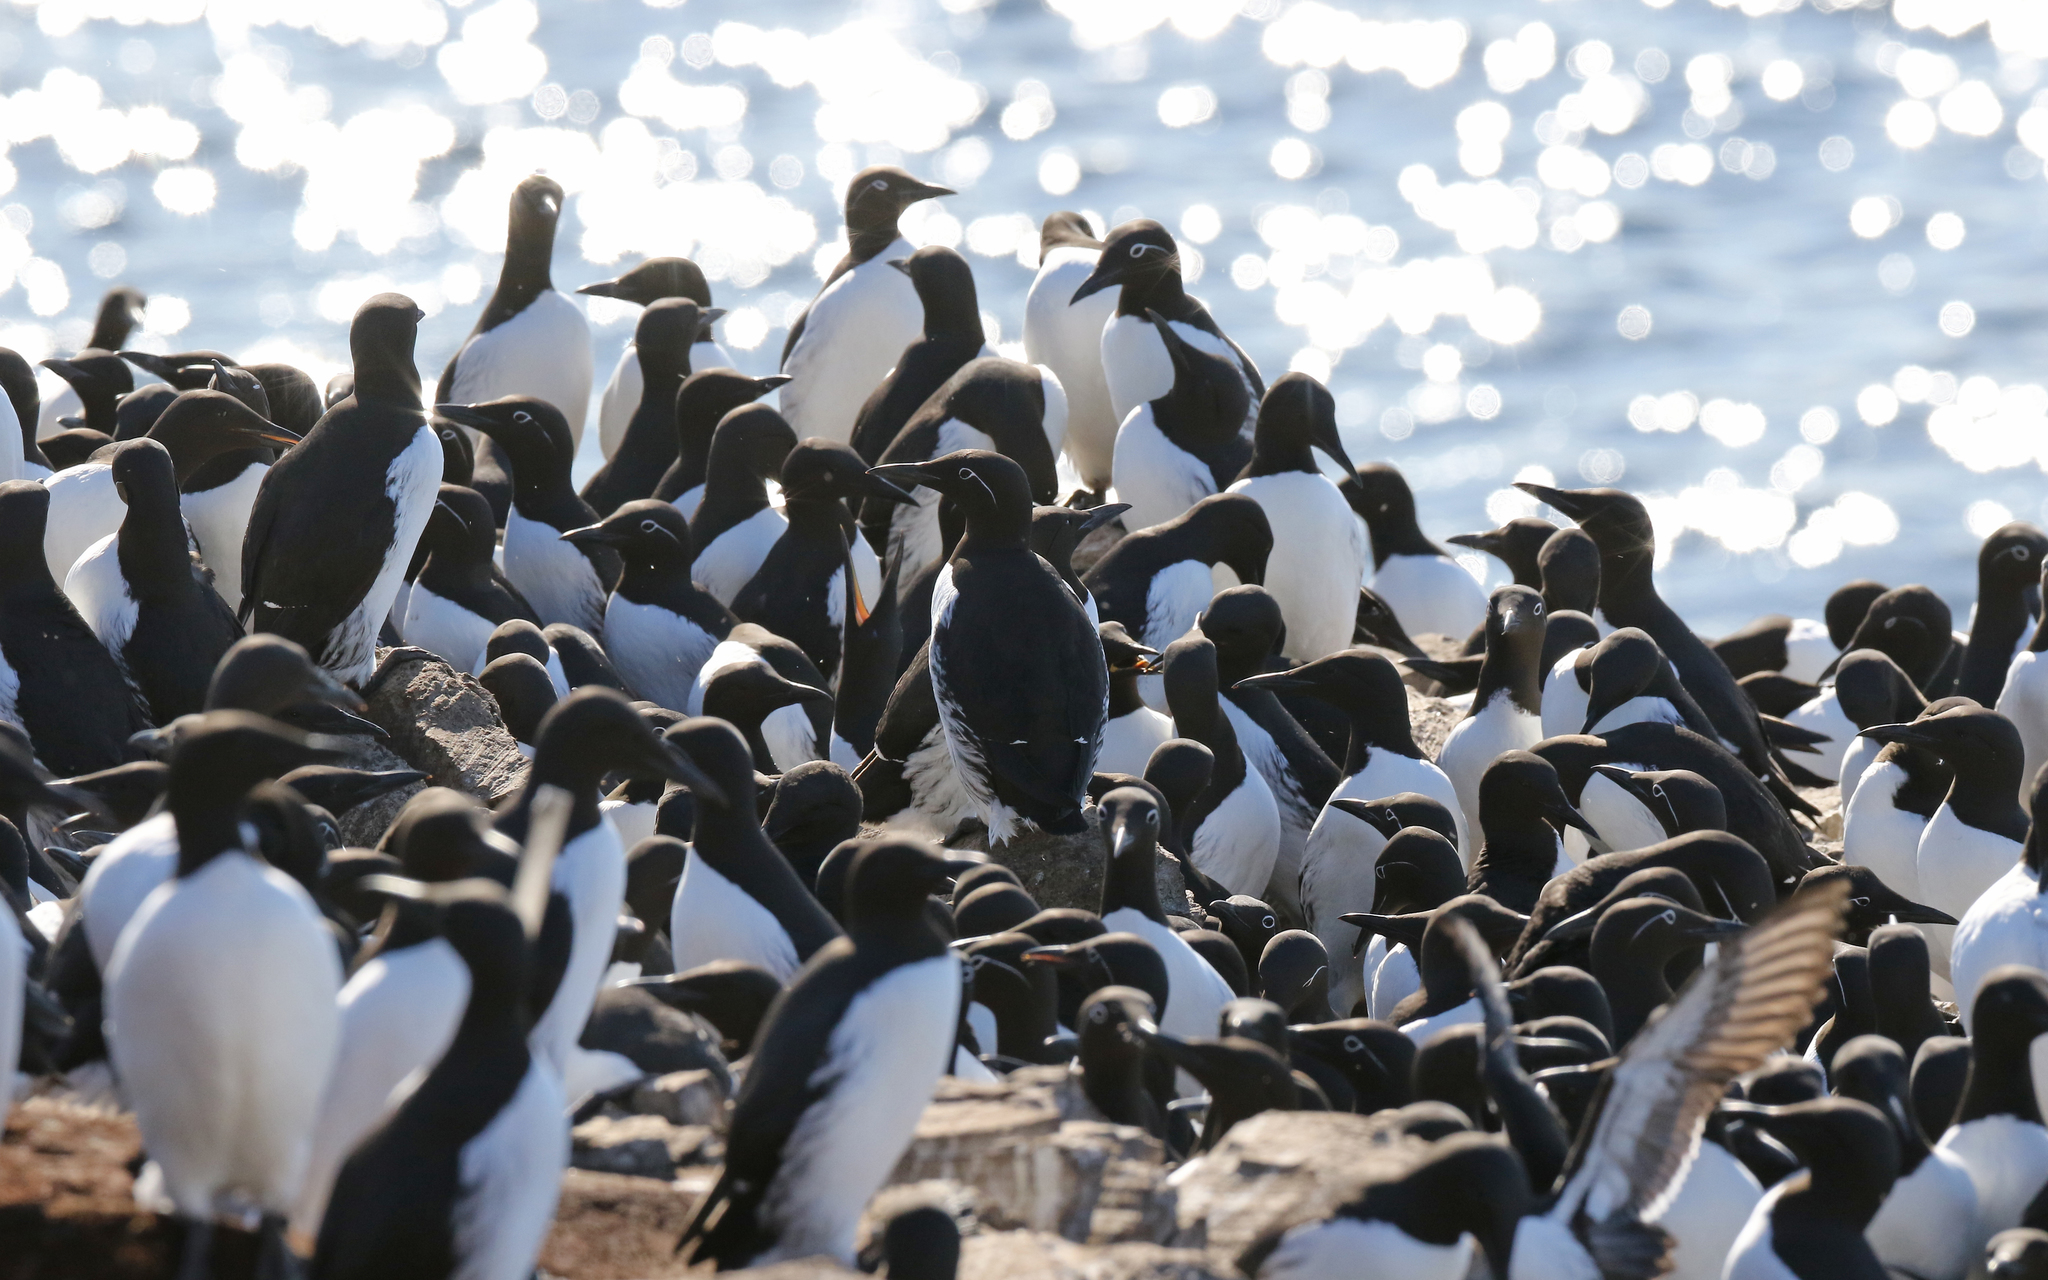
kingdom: Animalia
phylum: Chordata
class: Aves
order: Charadriiformes
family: Alcidae
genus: Uria
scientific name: Uria aalge
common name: Common murre
